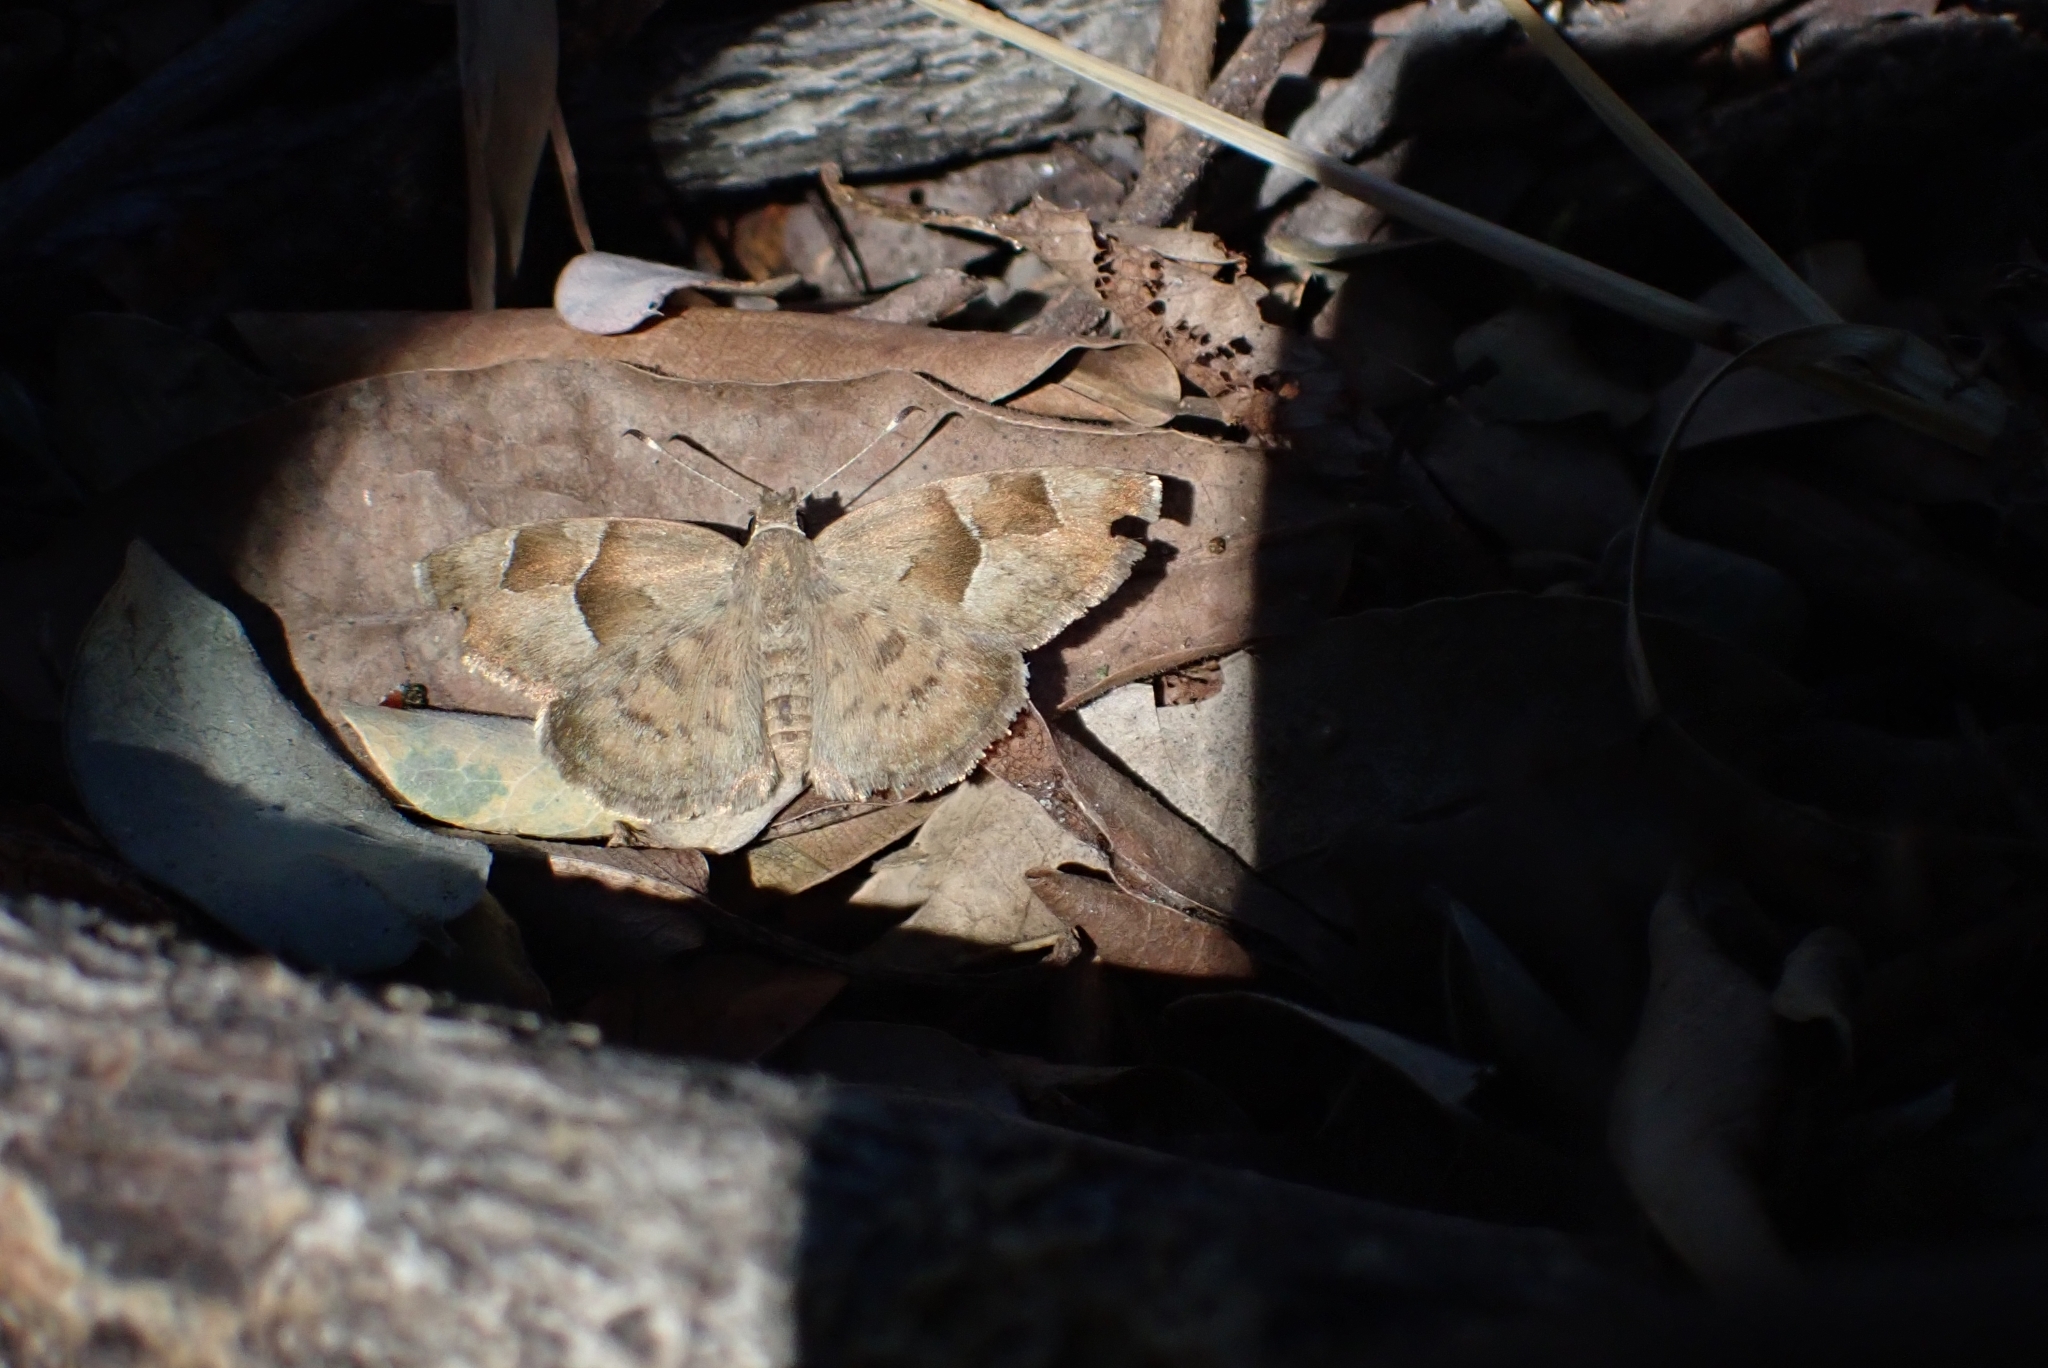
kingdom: Animalia
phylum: Arthropoda
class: Insecta
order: Lepidoptera
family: Hesperiidae
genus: Sarangesa
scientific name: Sarangesa phidyle
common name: Small elfin
